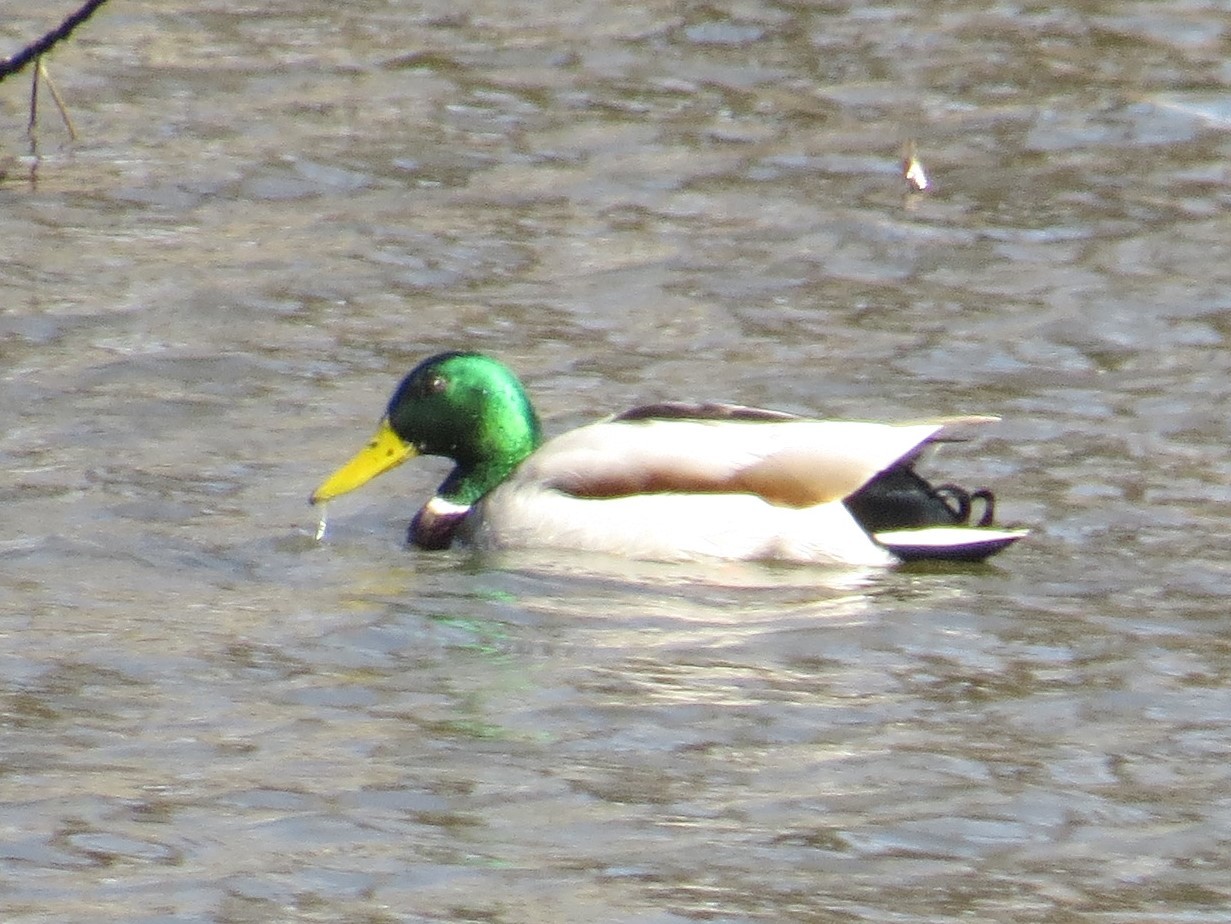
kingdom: Animalia
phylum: Chordata
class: Aves
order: Anseriformes
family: Anatidae
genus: Anas
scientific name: Anas platyrhynchos
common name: Mallard
